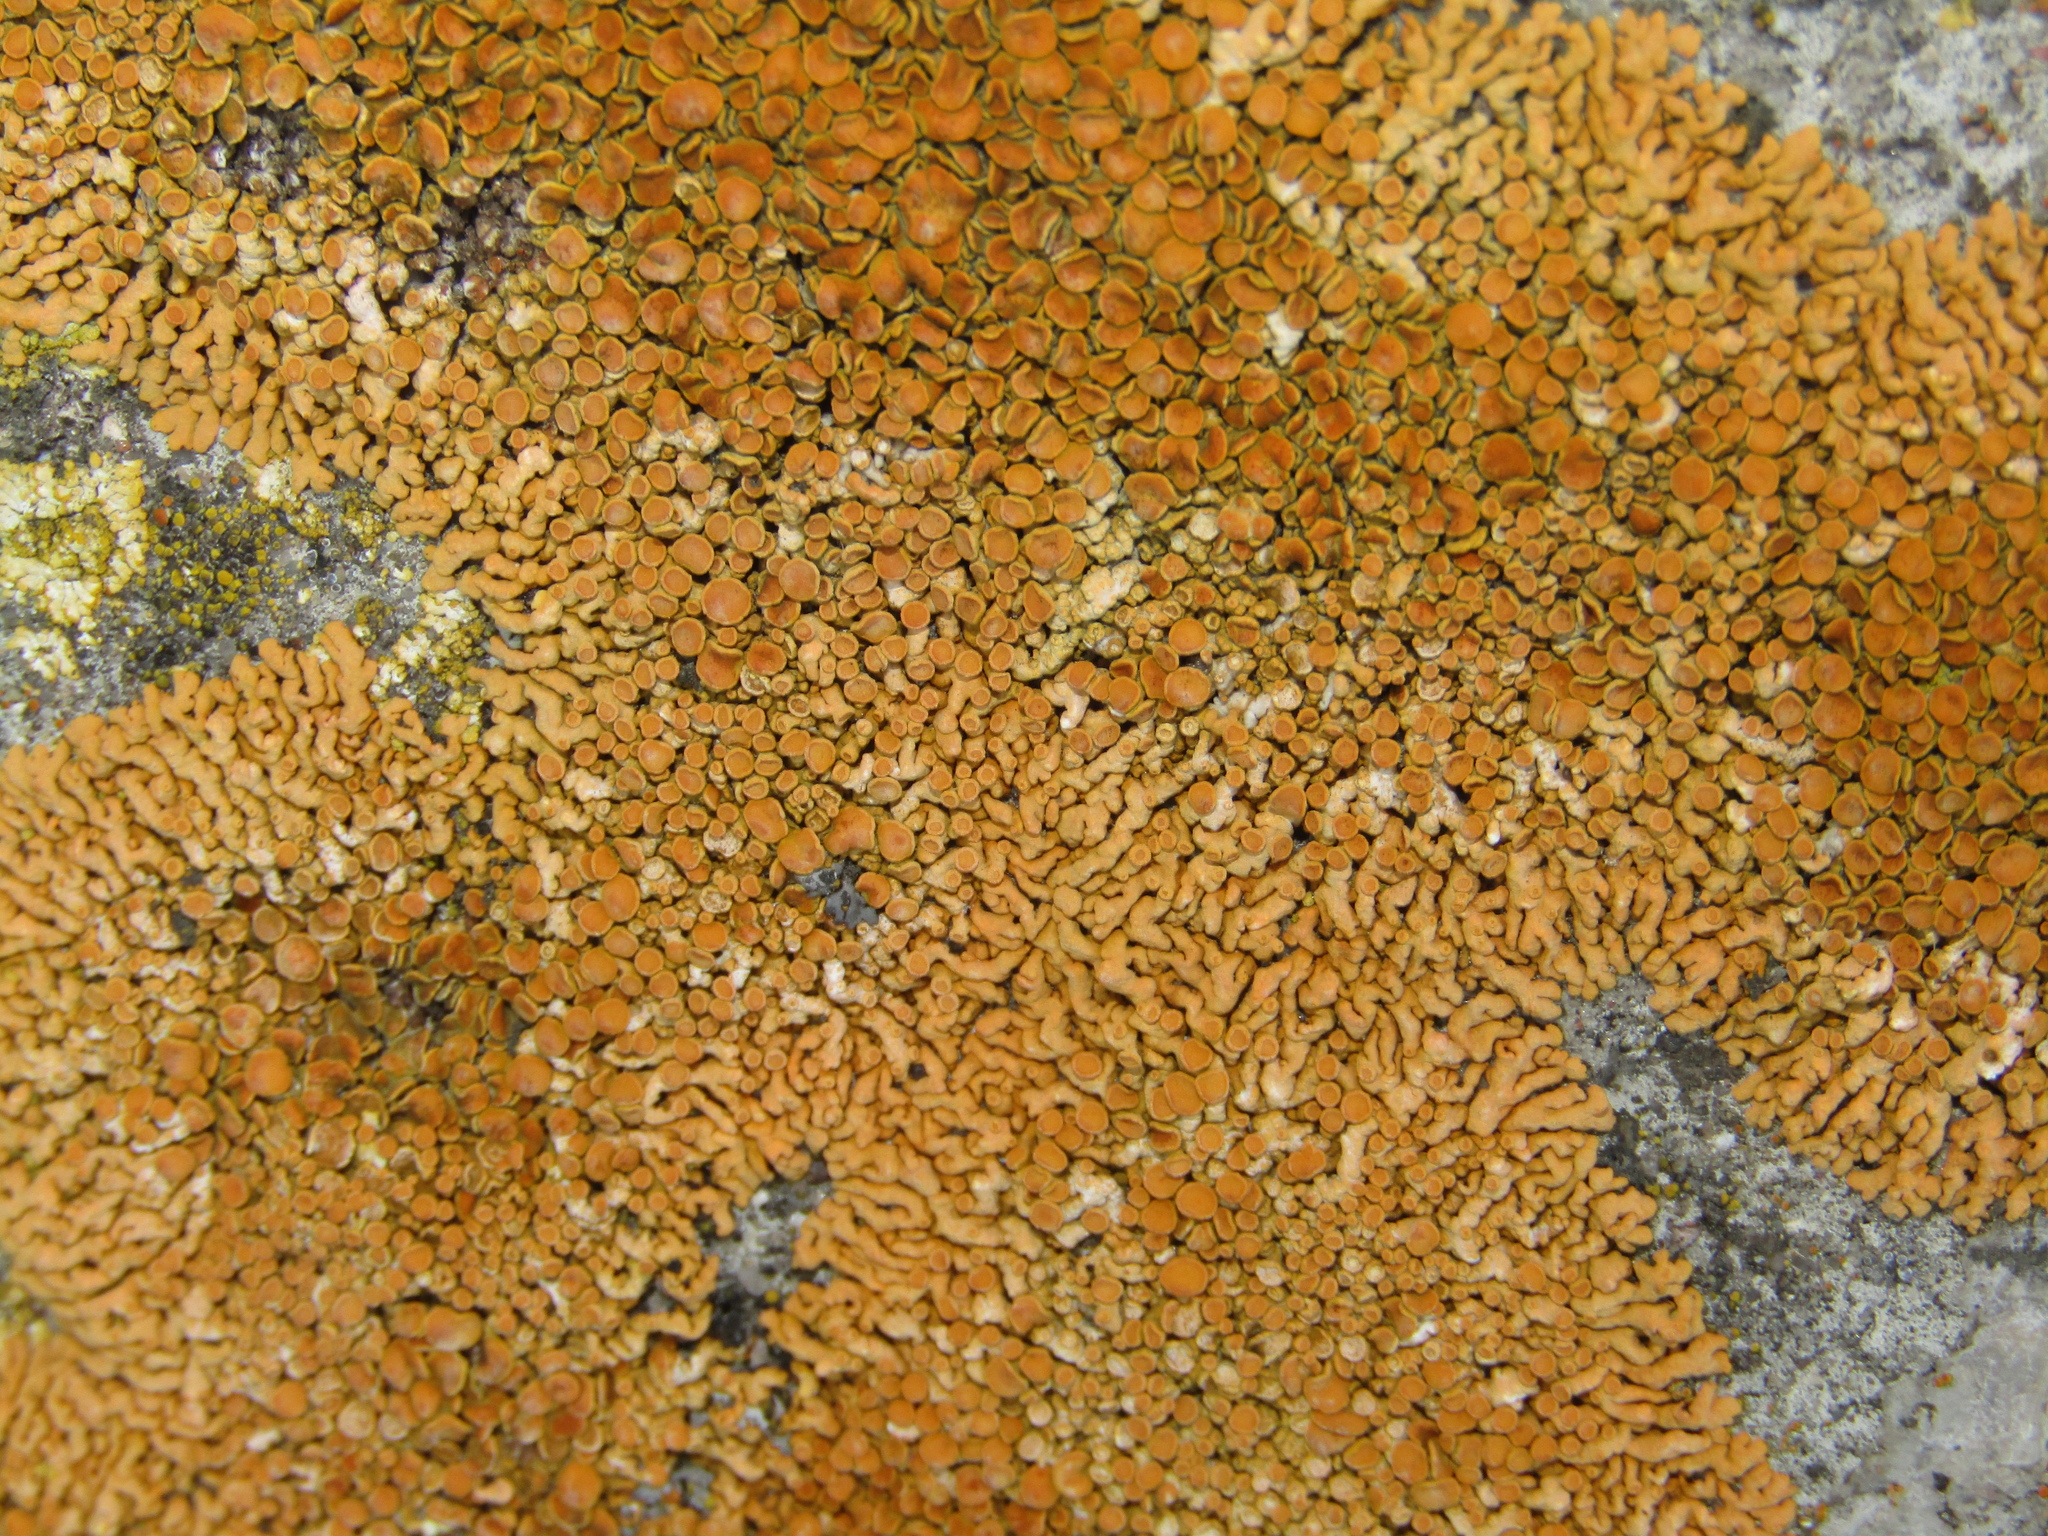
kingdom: Fungi
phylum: Ascomycota
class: Lecanoromycetes
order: Teloschistales
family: Teloschistaceae
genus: Xanthoria
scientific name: Xanthoria elegans
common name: Elegant sunburst lichen
